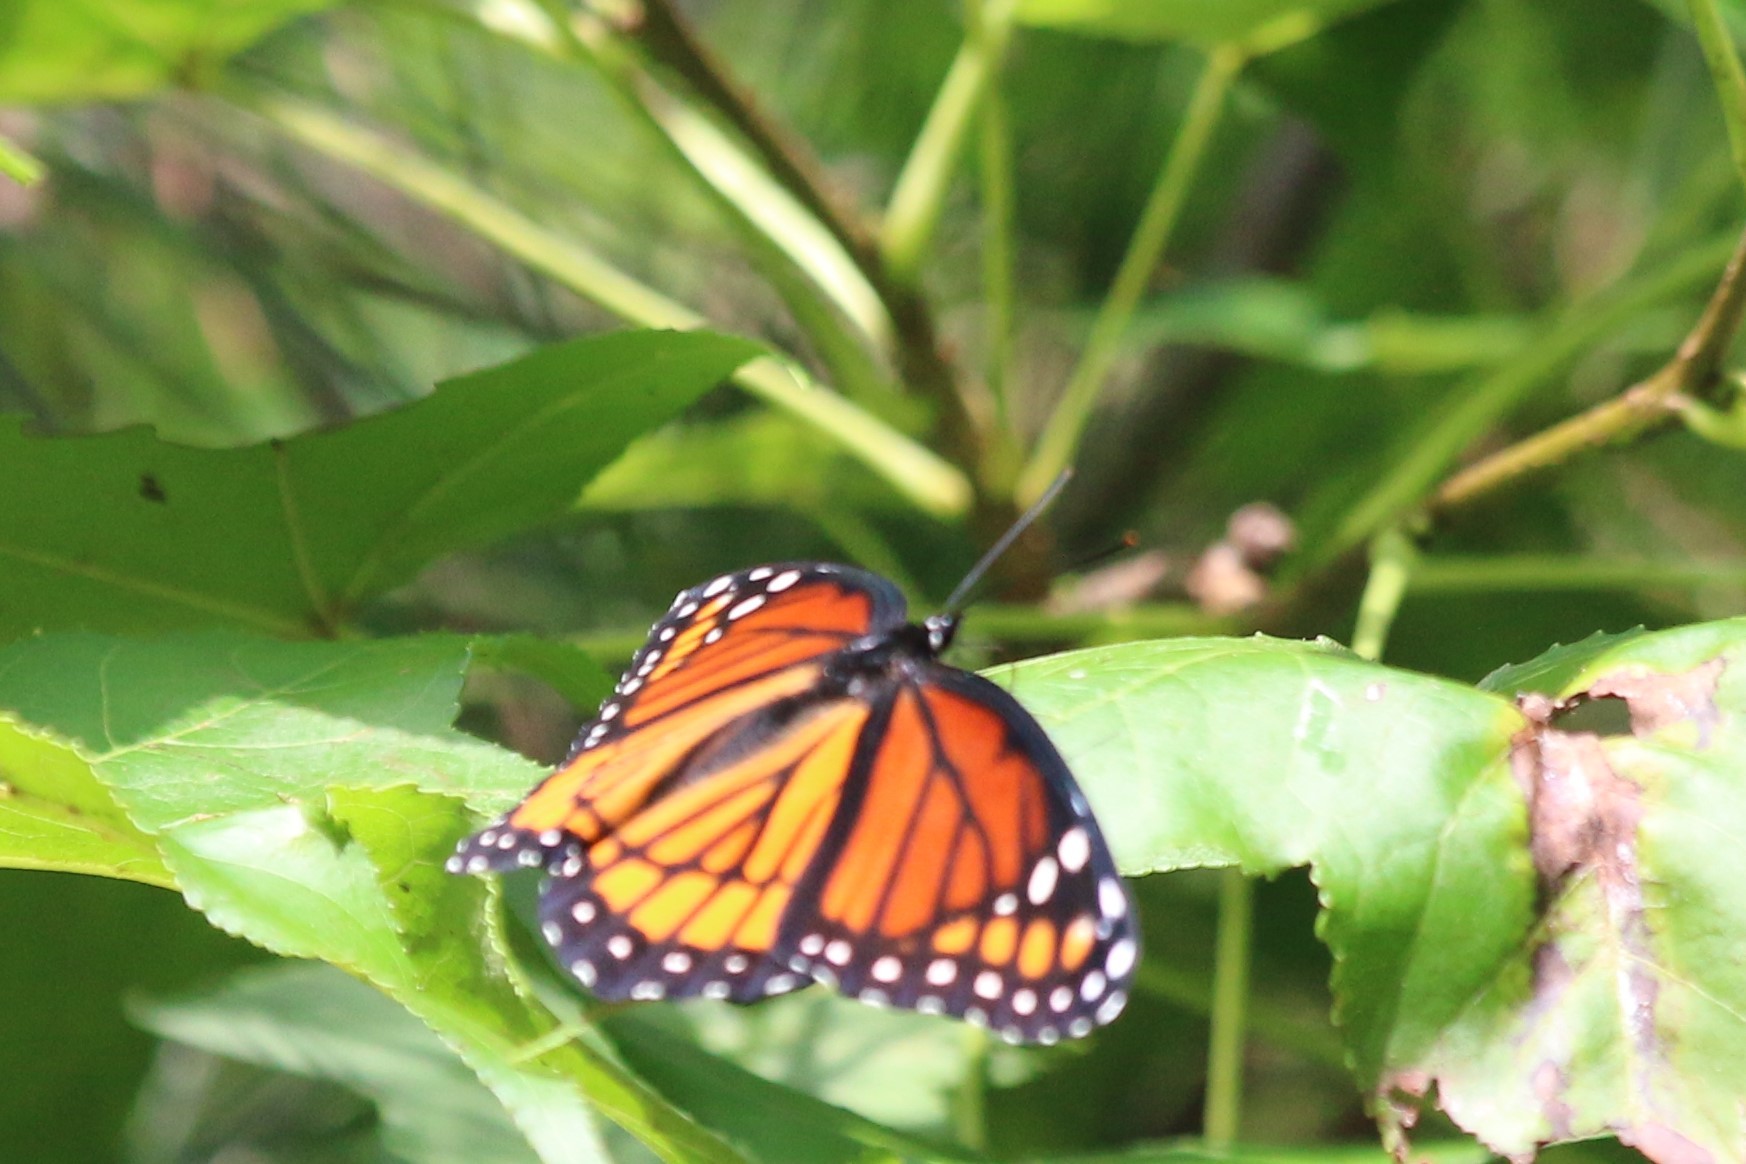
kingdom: Animalia
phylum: Arthropoda
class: Insecta
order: Lepidoptera
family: Nymphalidae
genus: Limenitis
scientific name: Limenitis archippus
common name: Viceroy
